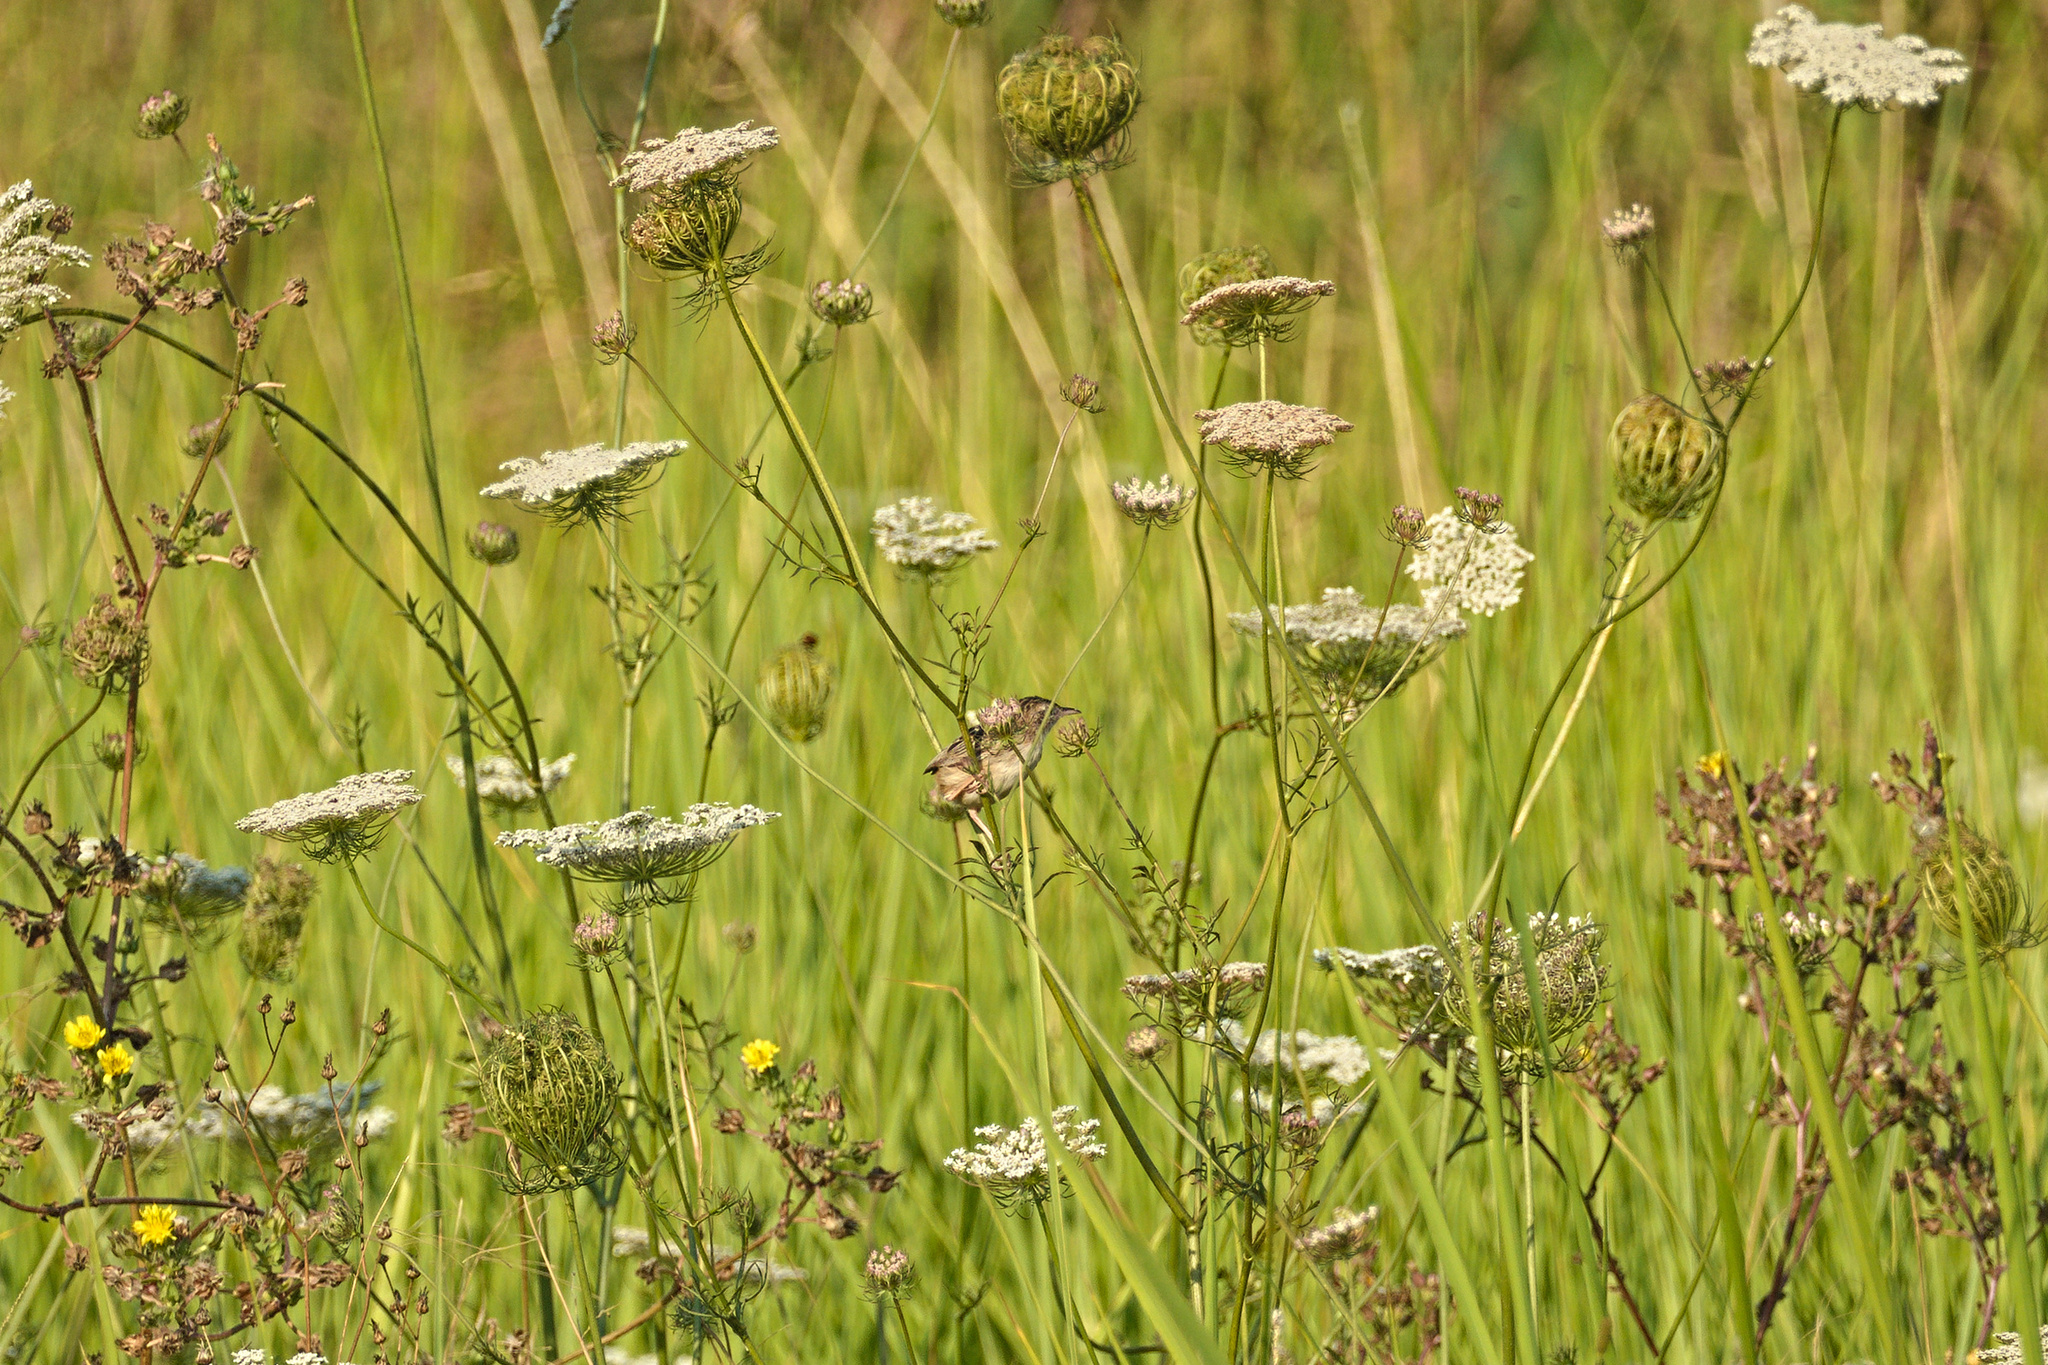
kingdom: Animalia
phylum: Chordata
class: Aves
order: Passeriformes
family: Cisticolidae
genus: Cisticola
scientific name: Cisticola juncidis
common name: Zitting cisticola
